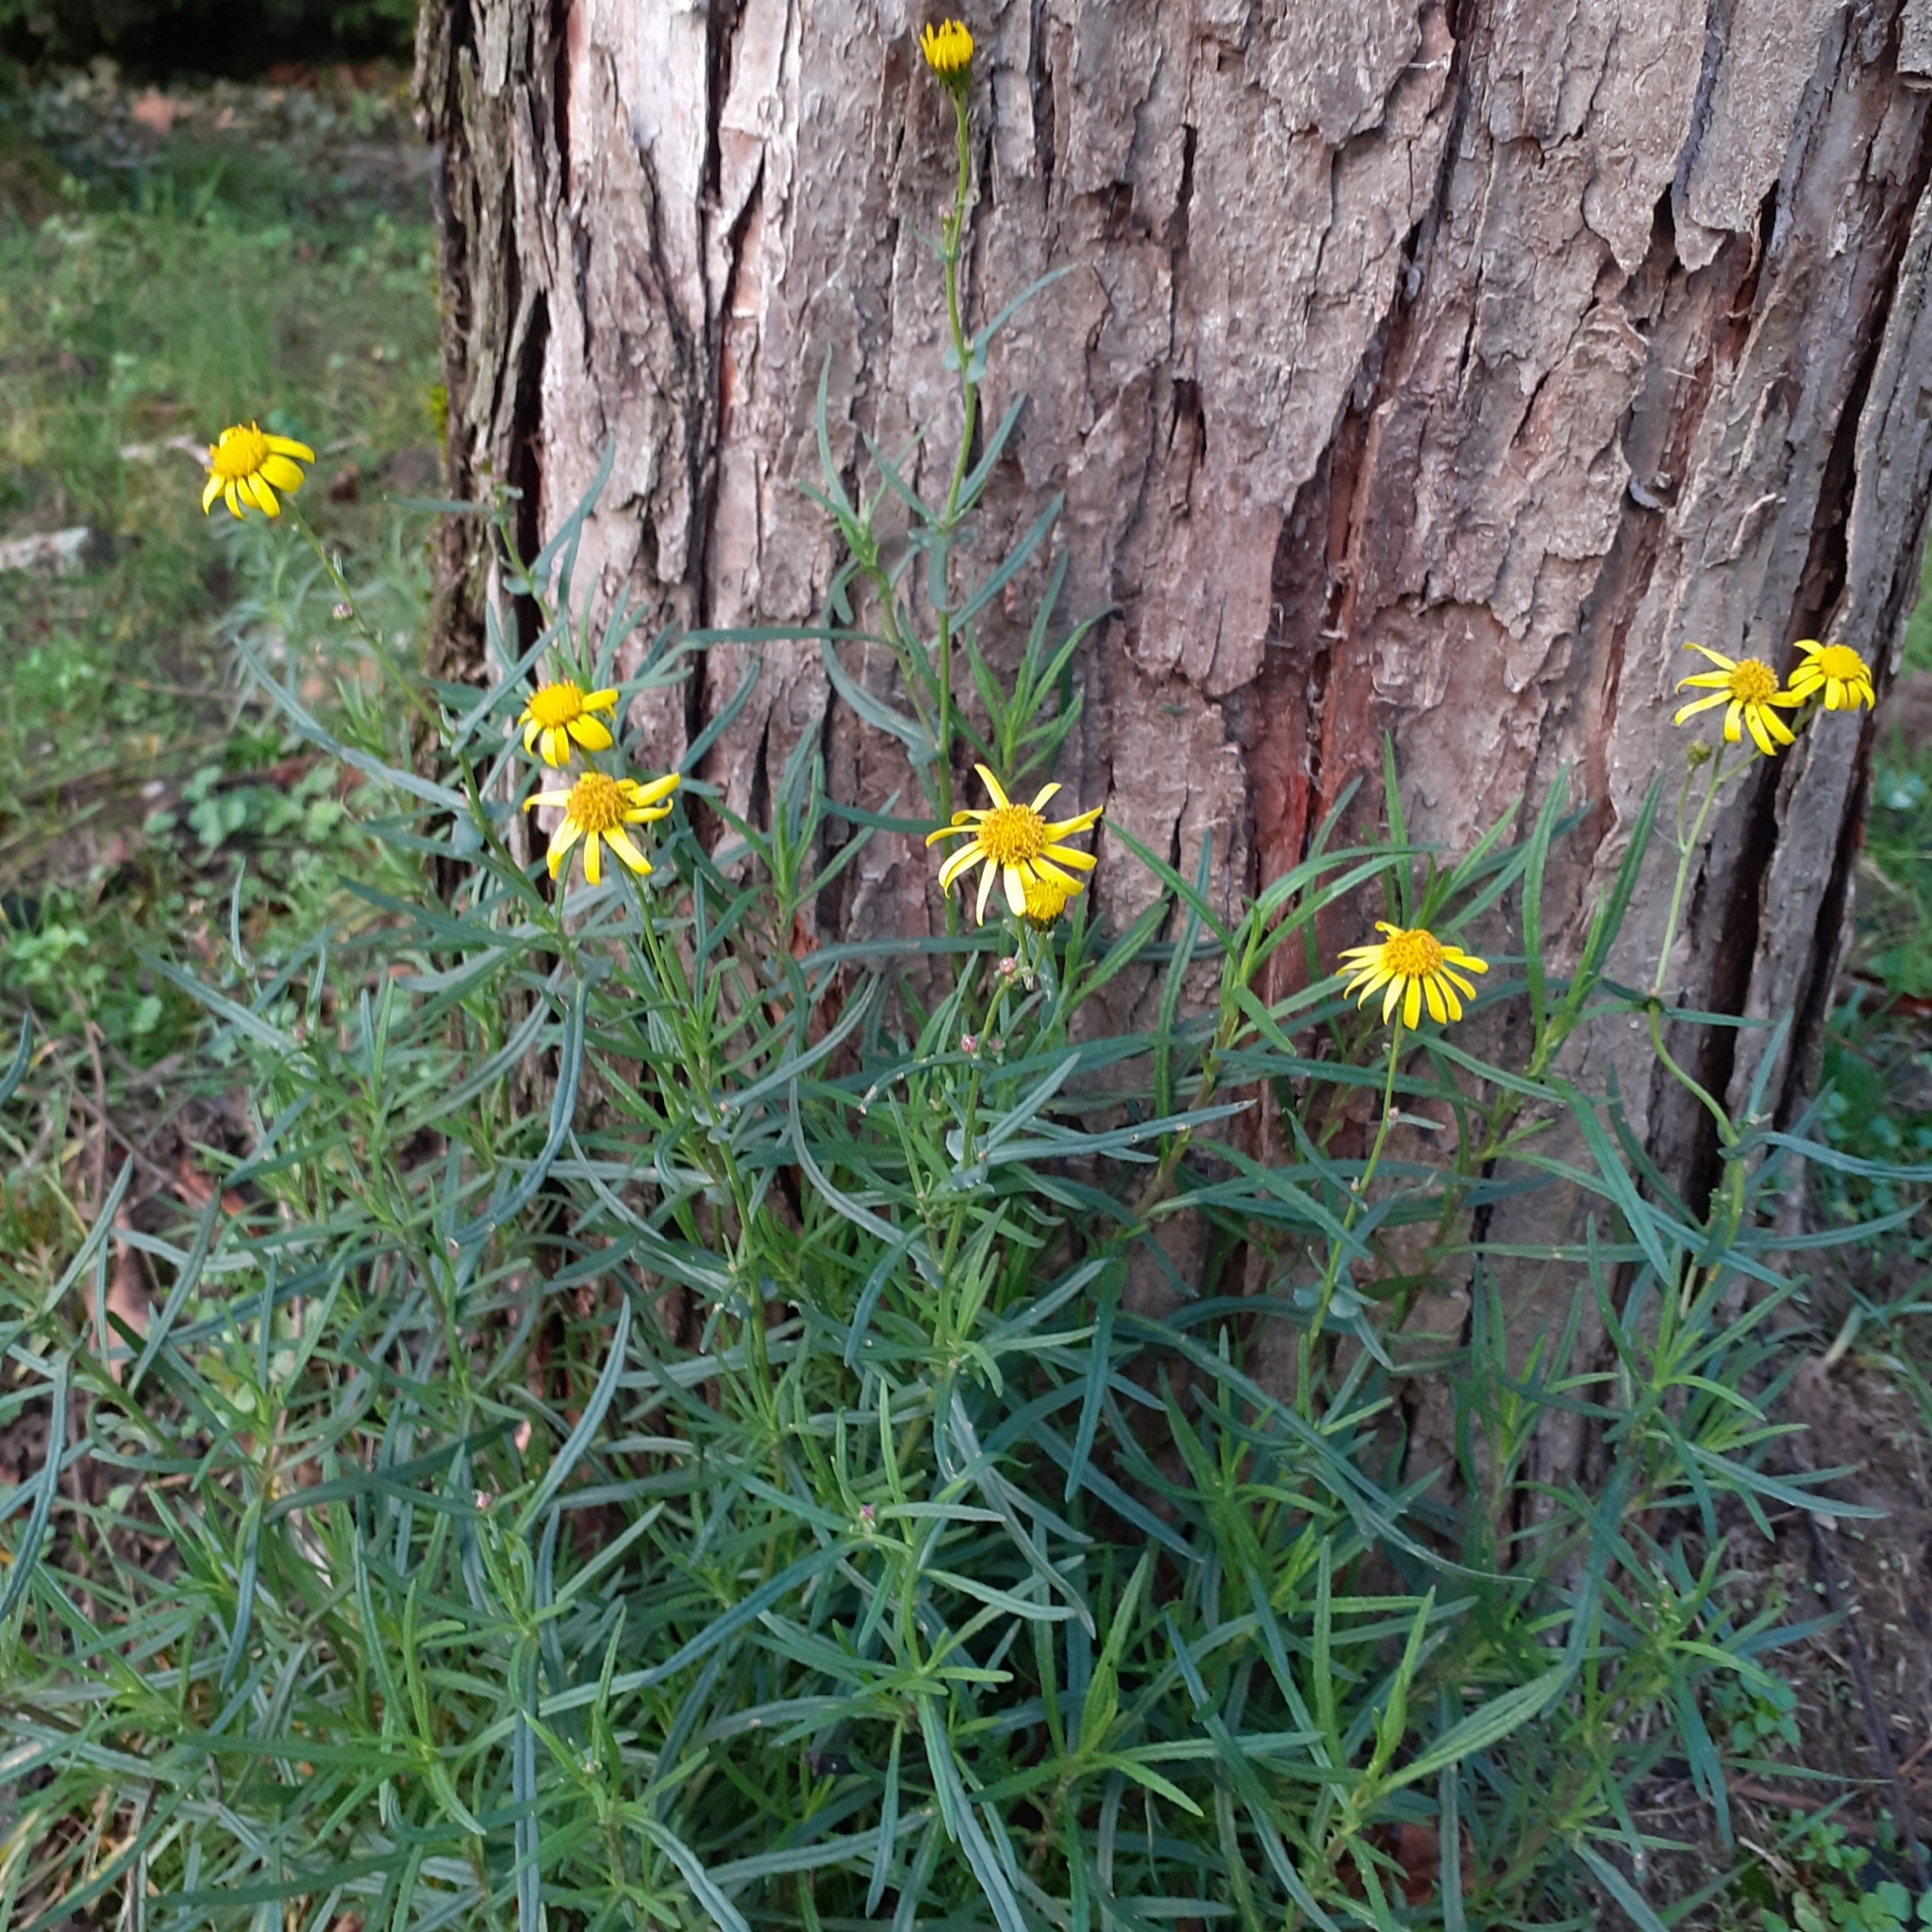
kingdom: Plantae
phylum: Tracheophyta
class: Magnoliopsida
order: Asterales
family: Asteraceae
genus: Senecio
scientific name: Senecio inaequidens
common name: Narrow-leaved ragwort
